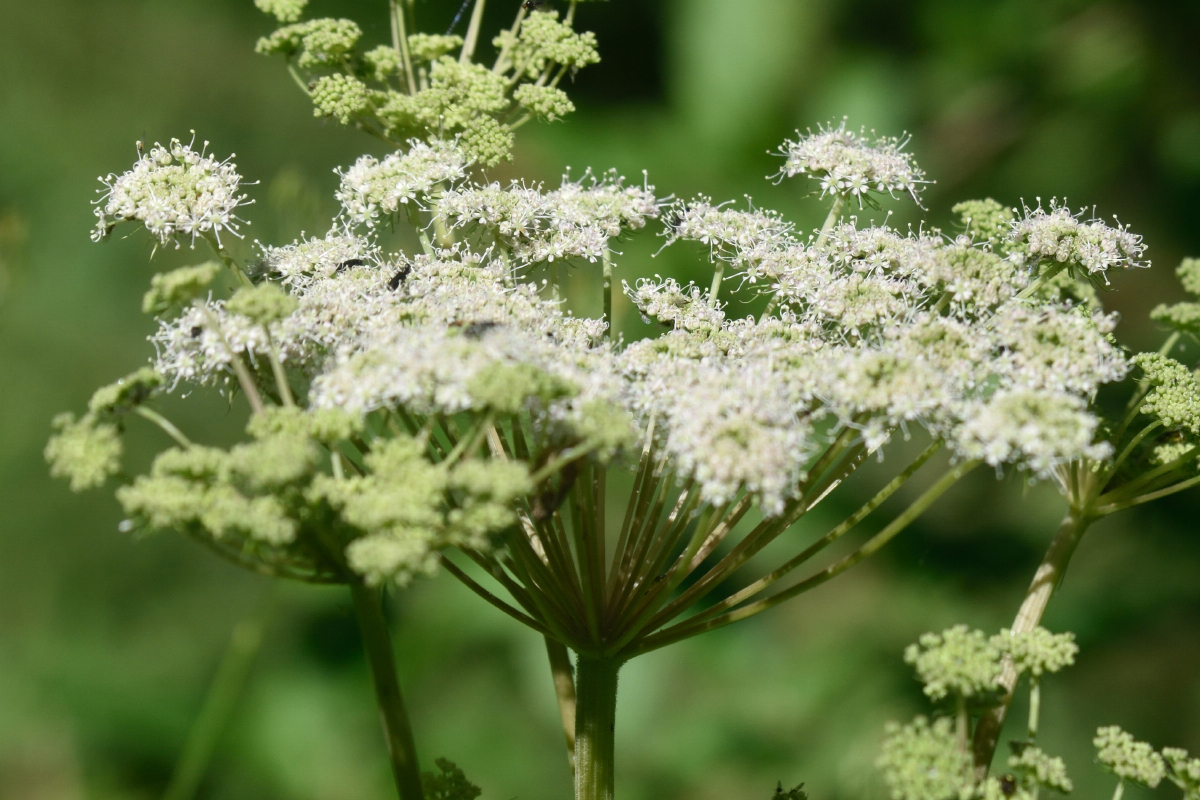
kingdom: Plantae
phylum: Tracheophyta
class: Magnoliopsida
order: Apiales
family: Apiaceae
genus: Angelica
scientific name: Angelica sylvestris
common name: Wild angelica
